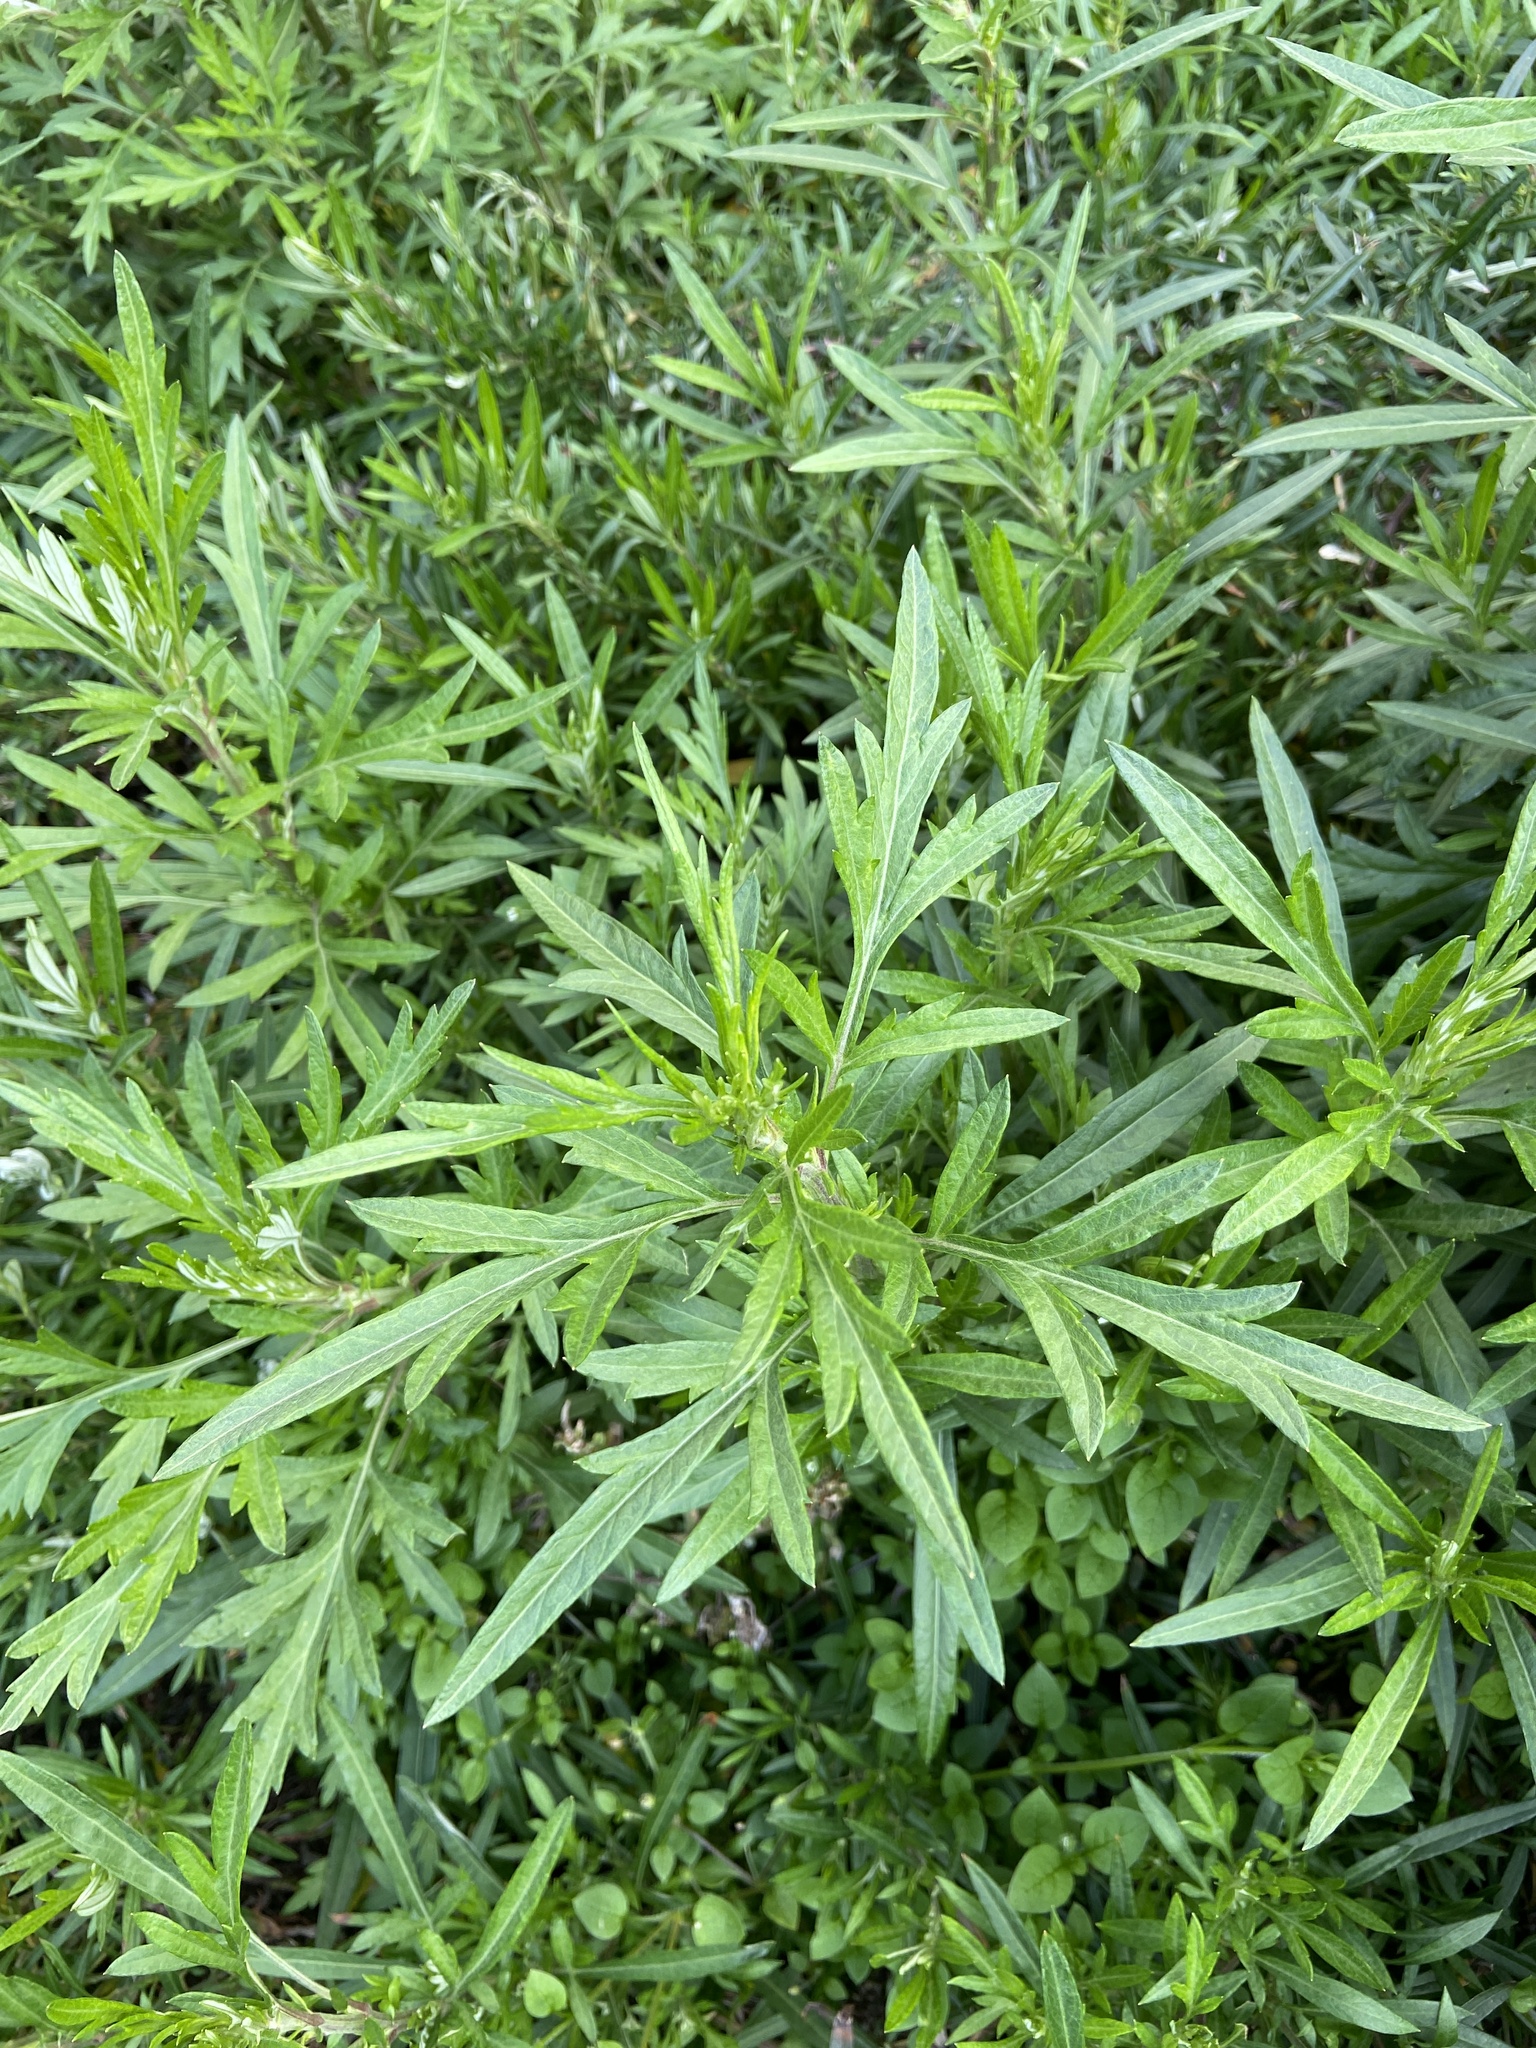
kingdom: Plantae
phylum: Tracheophyta
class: Magnoliopsida
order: Asterales
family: Asteraceae
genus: Artemisia
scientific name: Artemisia indica
